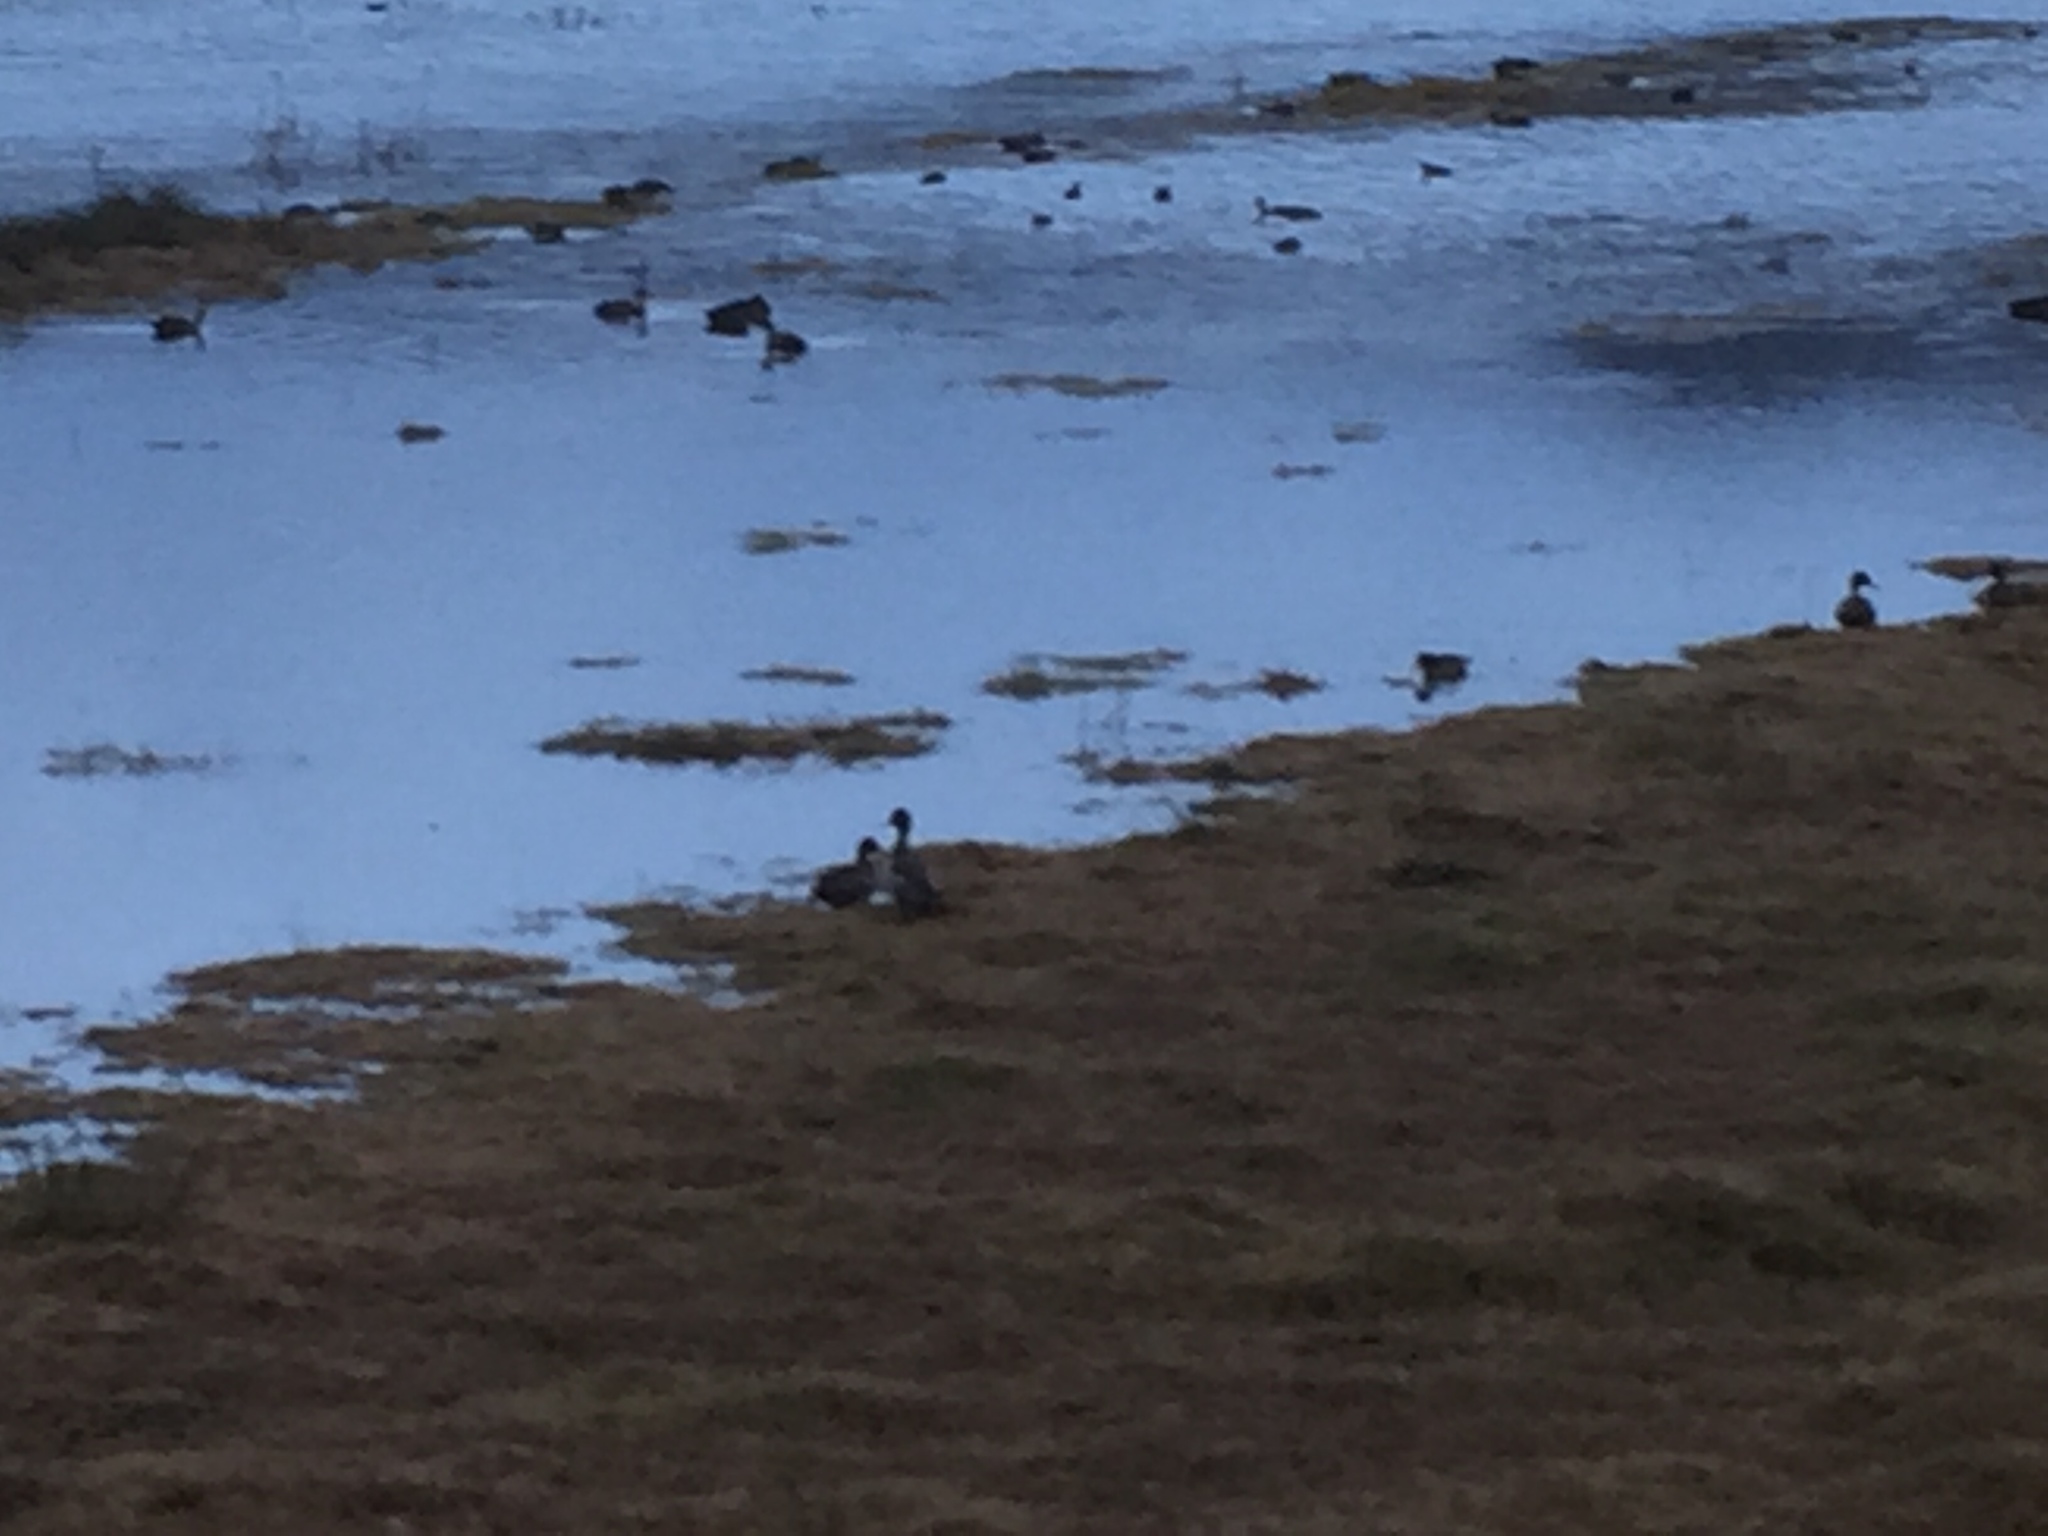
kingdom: Animalia
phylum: Chordata
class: Aves
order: Anseriformes
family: Anatidae
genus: Anas
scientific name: Anas undulata
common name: Yellow-billed duck
